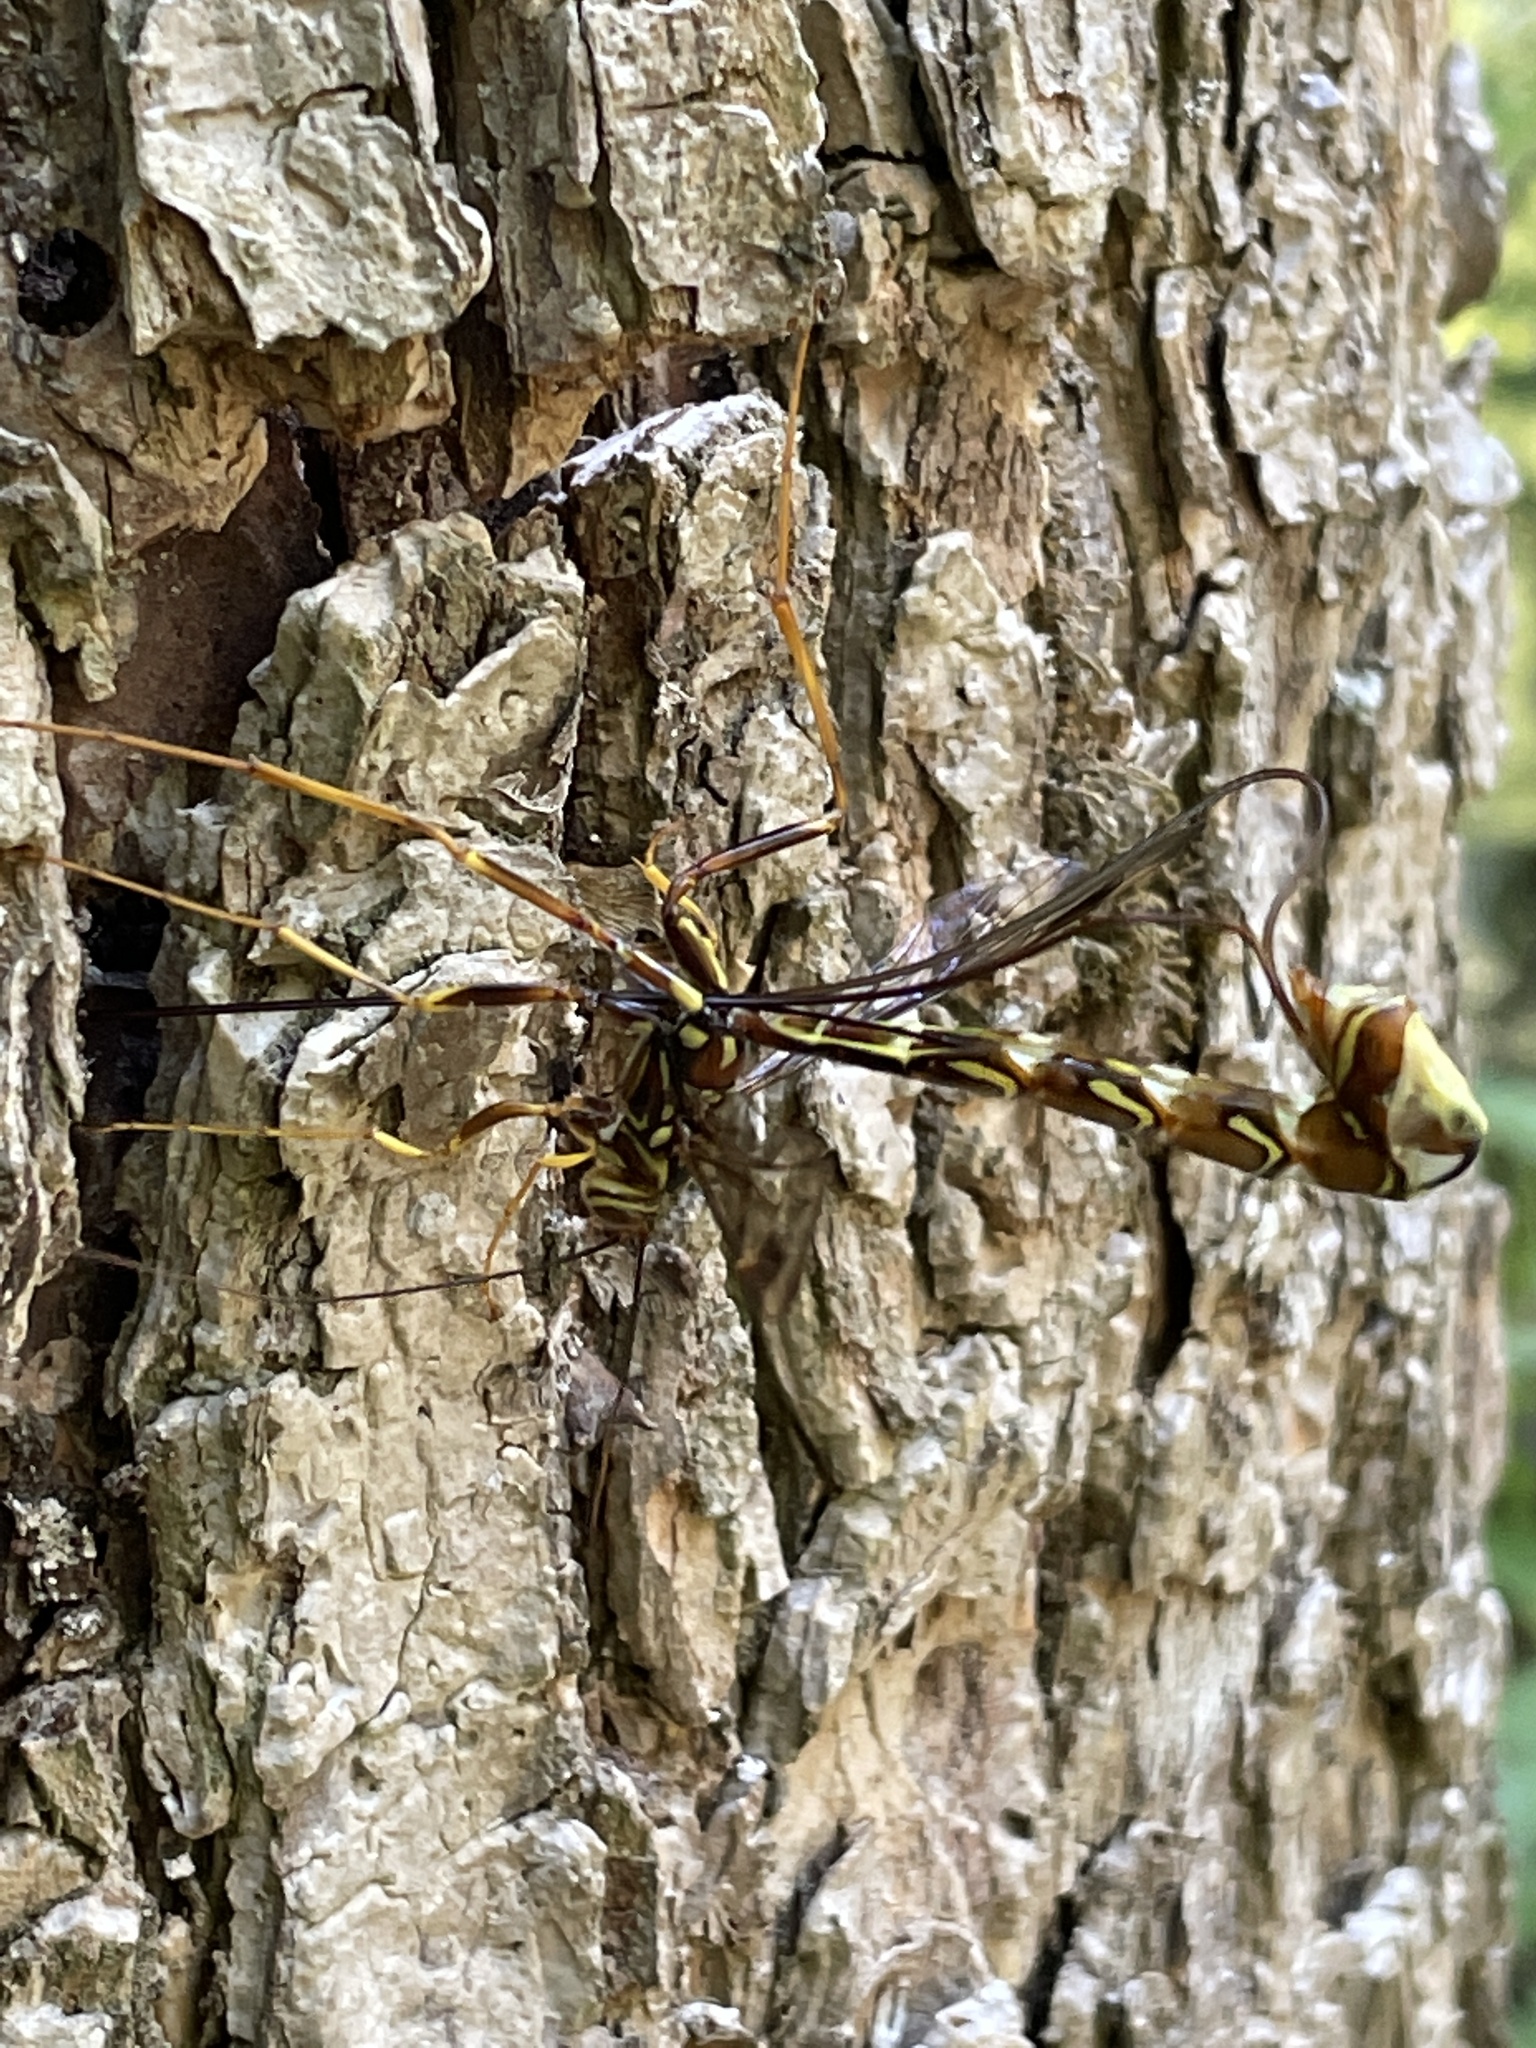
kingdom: Animalia
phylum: Arthropoda
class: Insecta
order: Hymenoptera
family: Ichneumonidae
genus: Megarhyssa
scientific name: Megarhyssa macrura
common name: Long-tailed giant ichneumonid wasp
